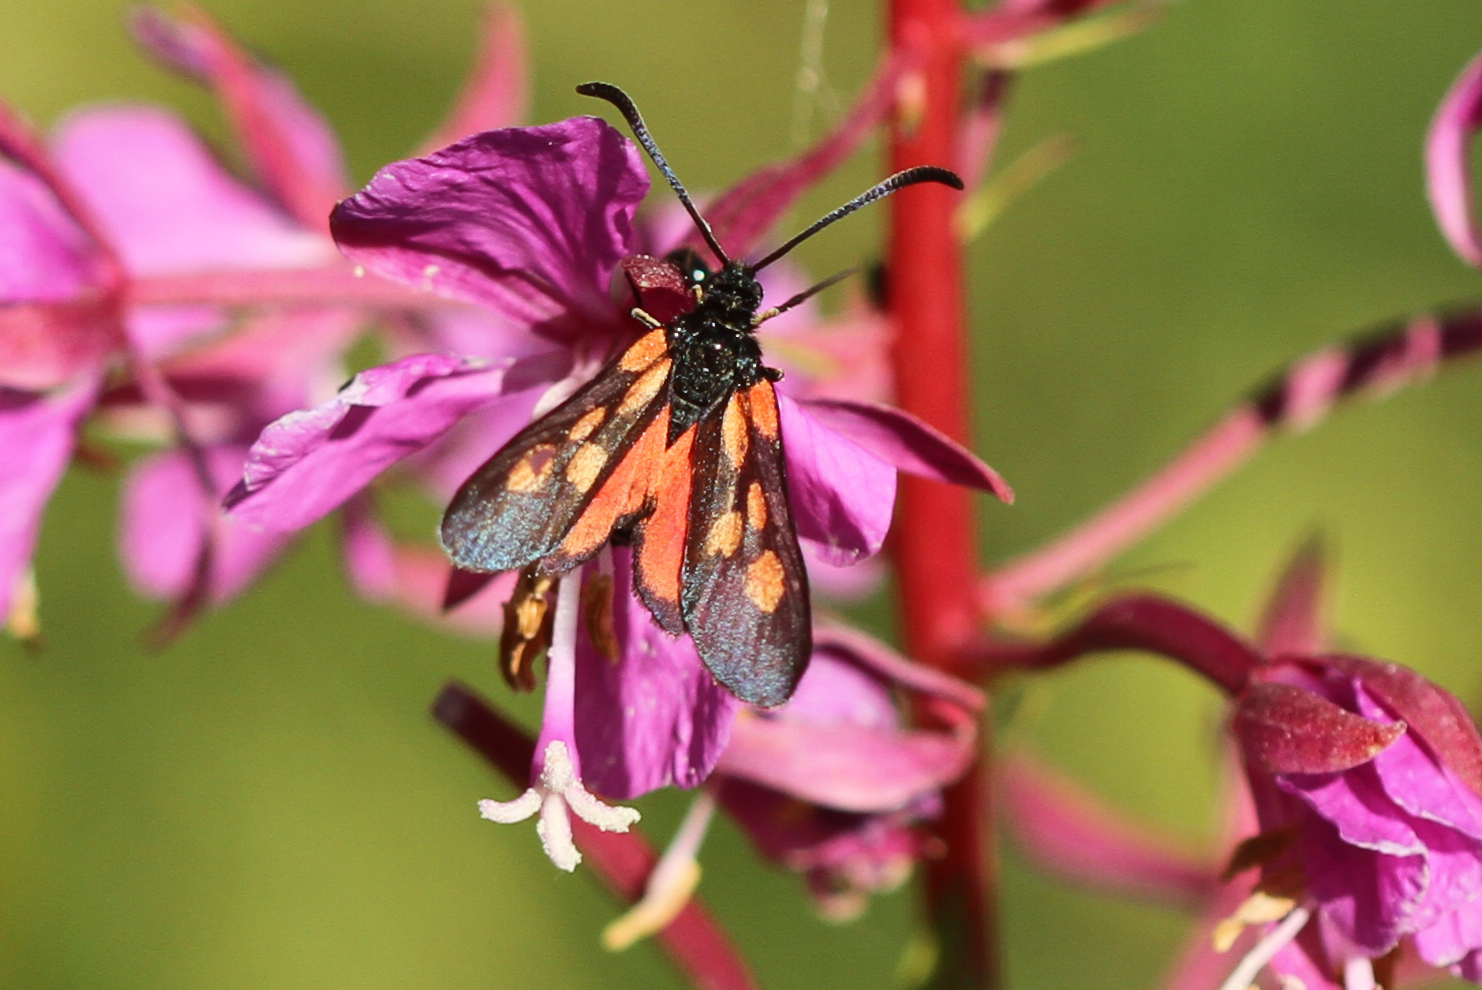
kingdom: Animalia
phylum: Arthropoda
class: Insecta
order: Lepidoptera
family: Zygaenidae
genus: Zygaena
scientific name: Zygaena sarpedon
